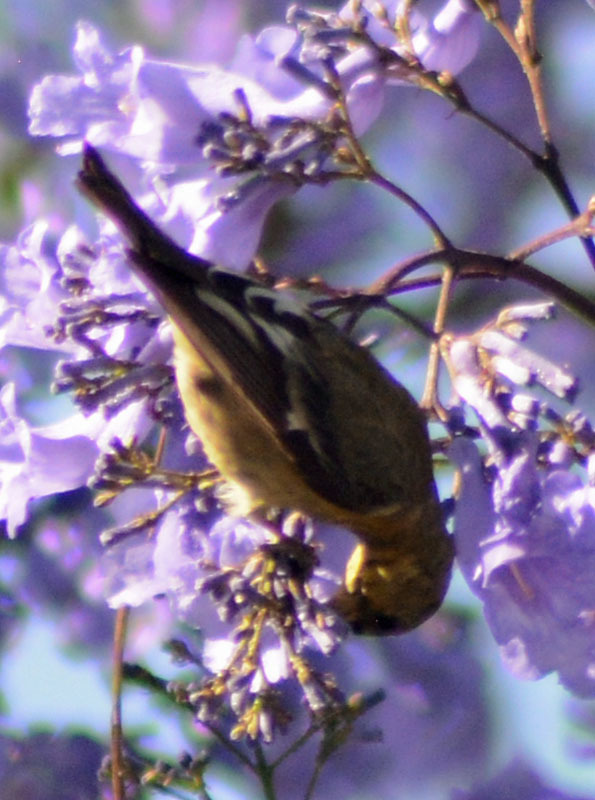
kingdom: Animalia
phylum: Chordata
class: Aves
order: Passeriformes
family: Fringillidae
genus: Spinus
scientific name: Spinus psaltria
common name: Lesser goldfinch
